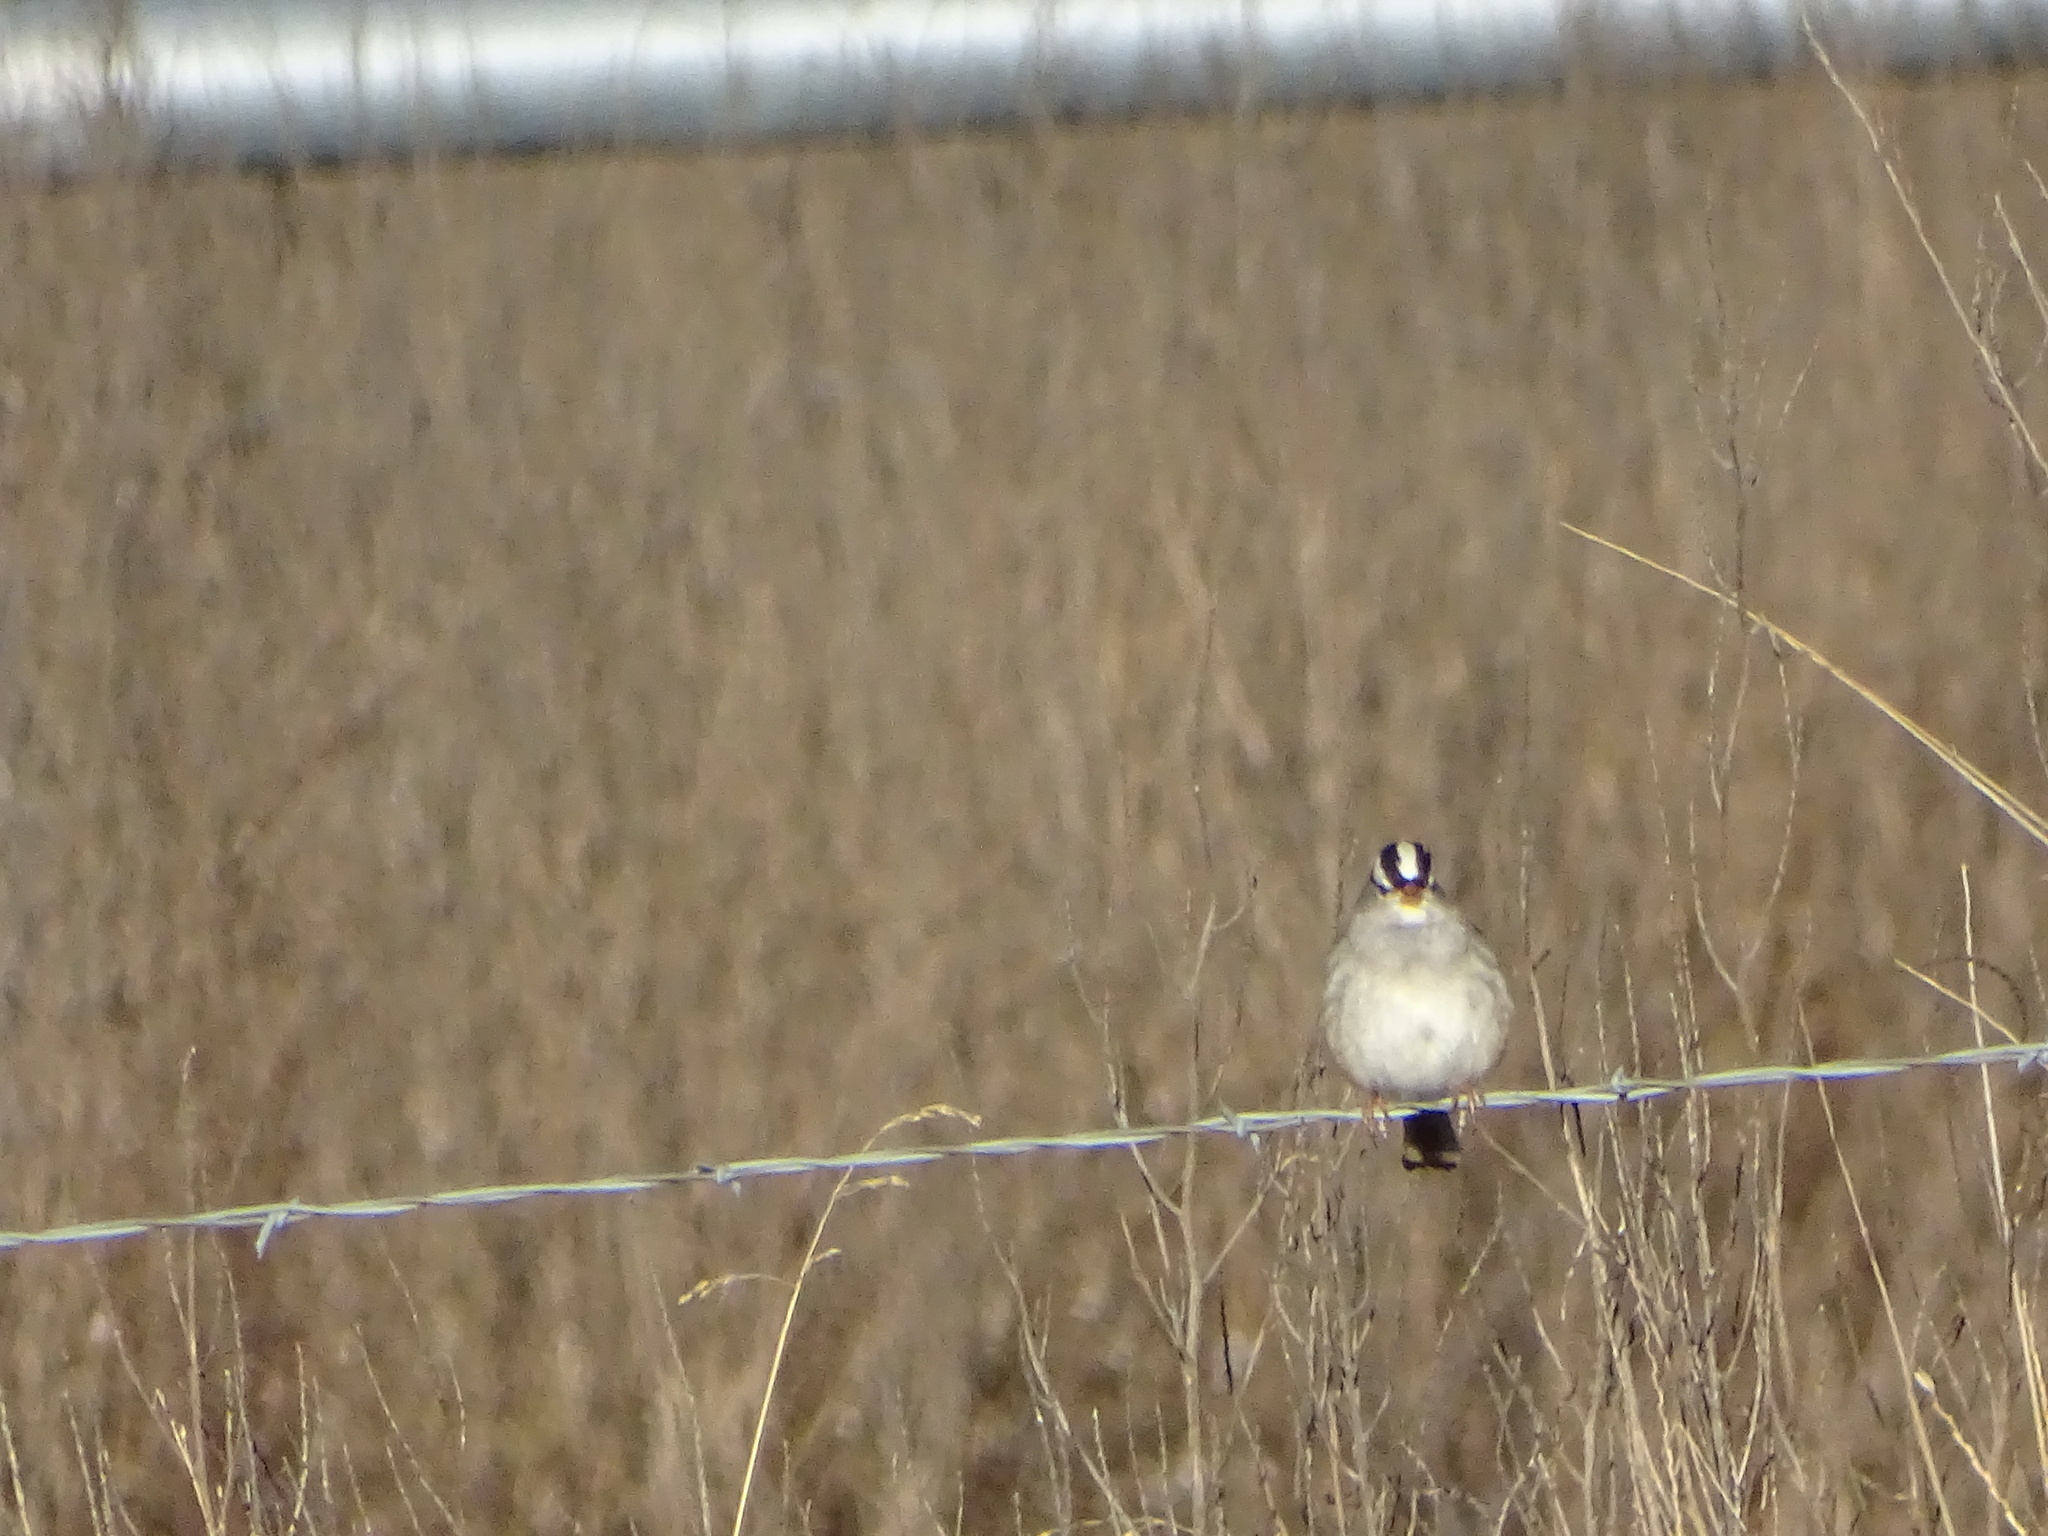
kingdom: Animalia
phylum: Chordata
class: Aves
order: Passeriformes
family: Passerellidae
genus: Zonotrichia
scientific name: Zonotrichia leucophrys
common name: White-crowned sparrow
